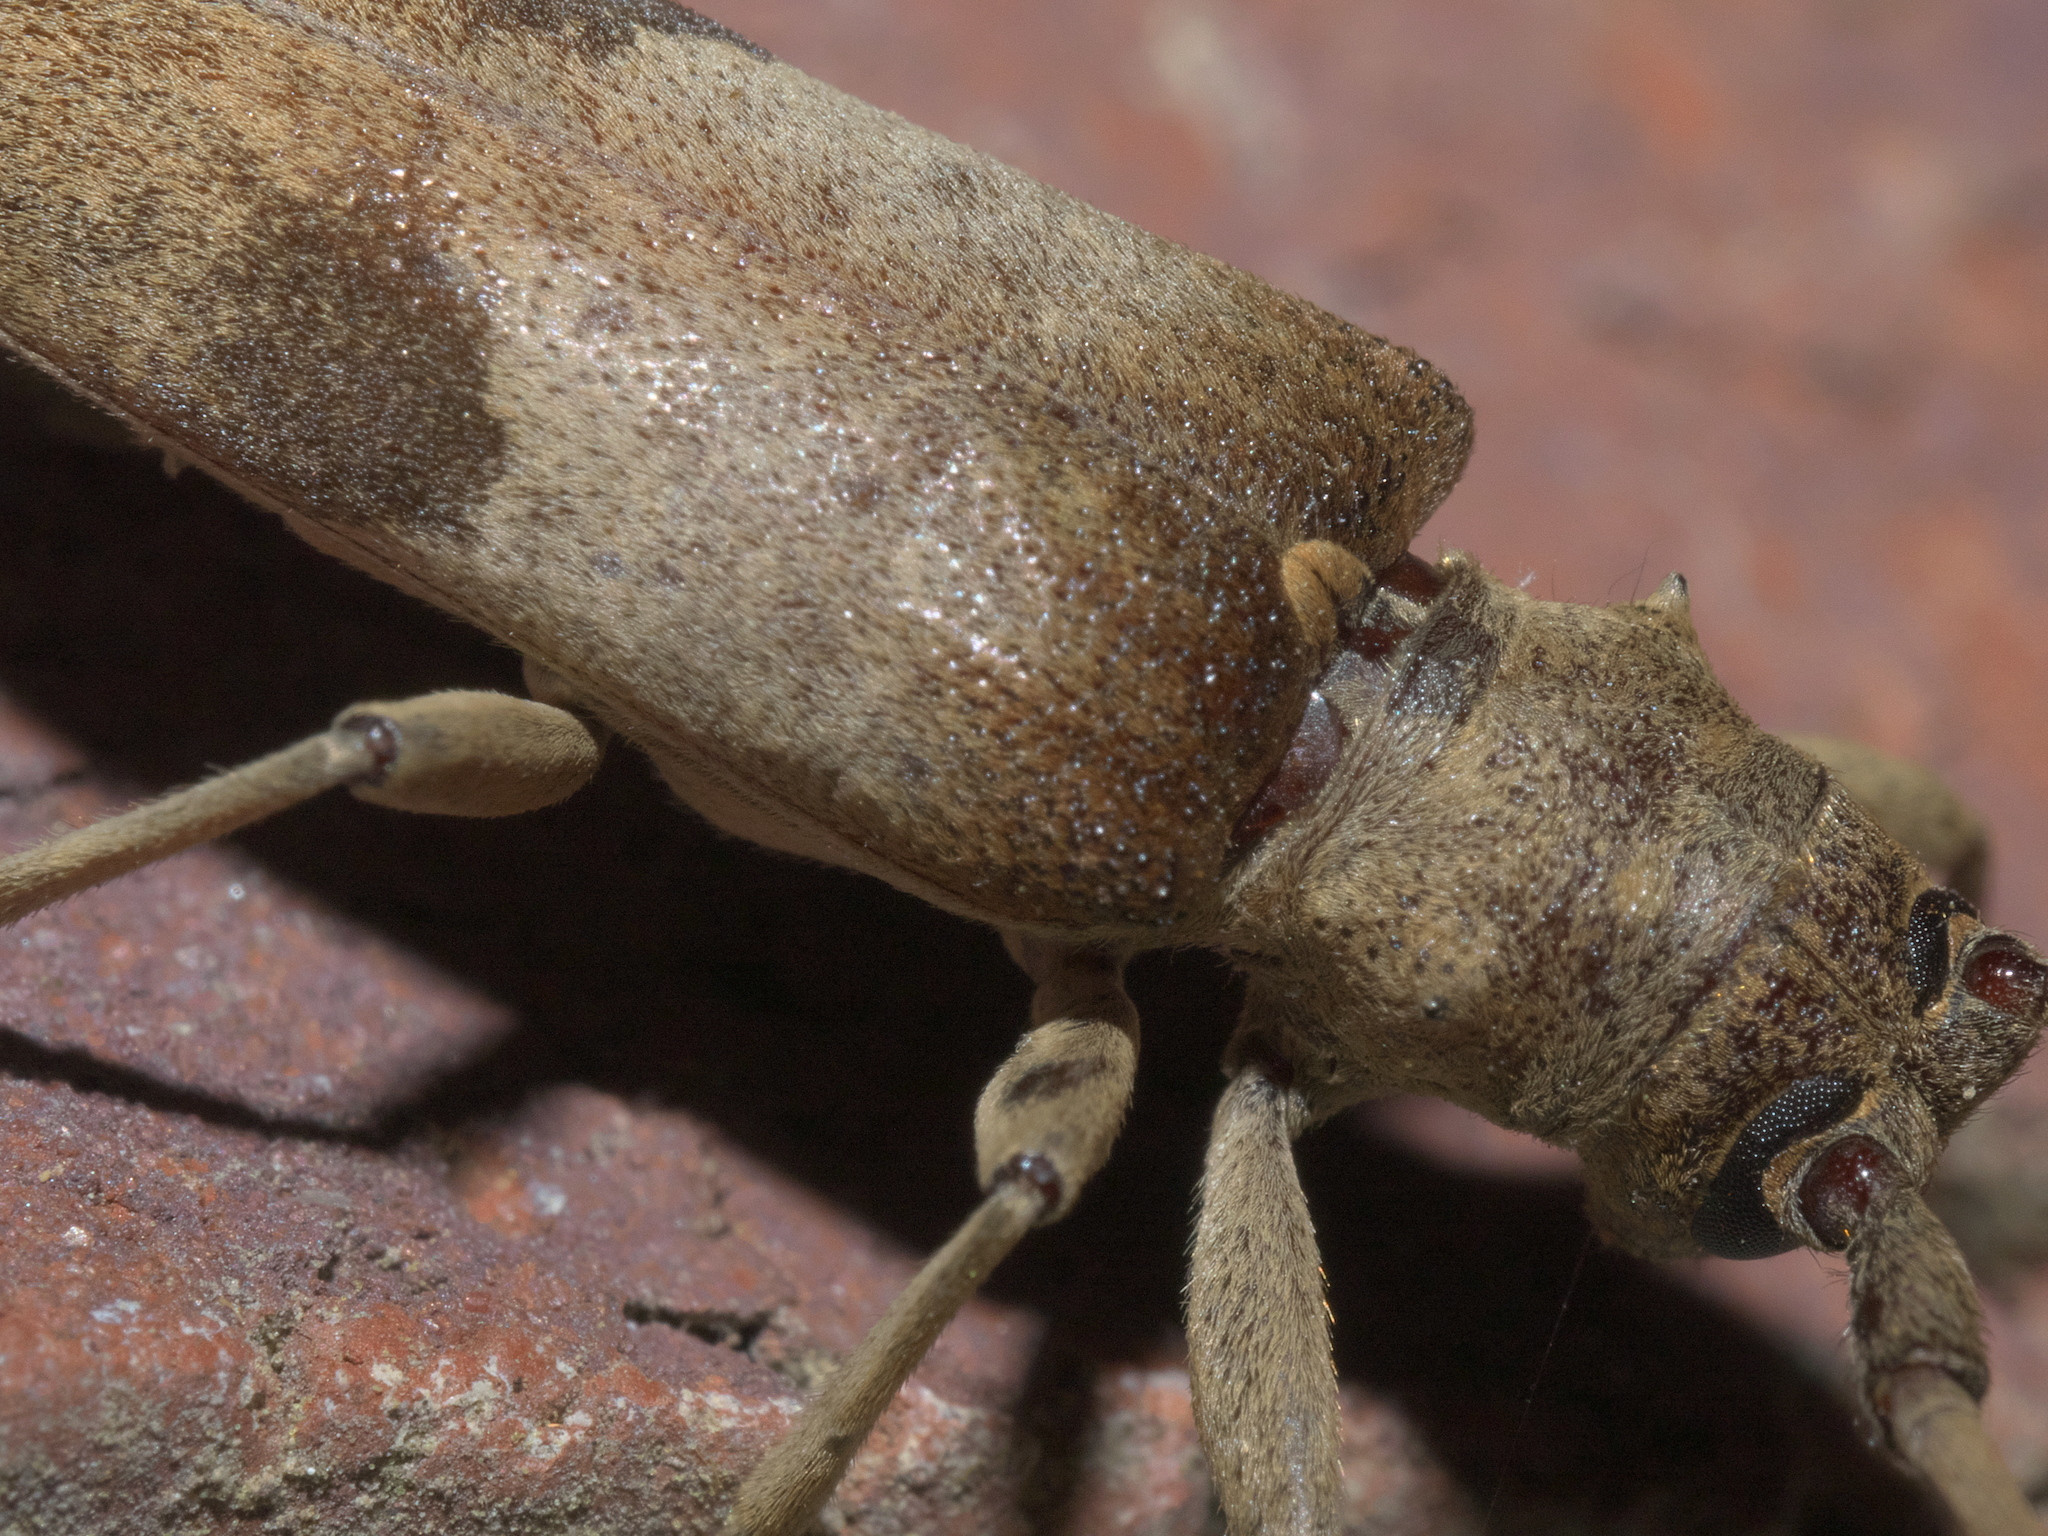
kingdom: Animalia
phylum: Arthropoda
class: Insecta
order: Coleoptera
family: Cerambycidae
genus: Goes
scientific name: Goes pulcher
